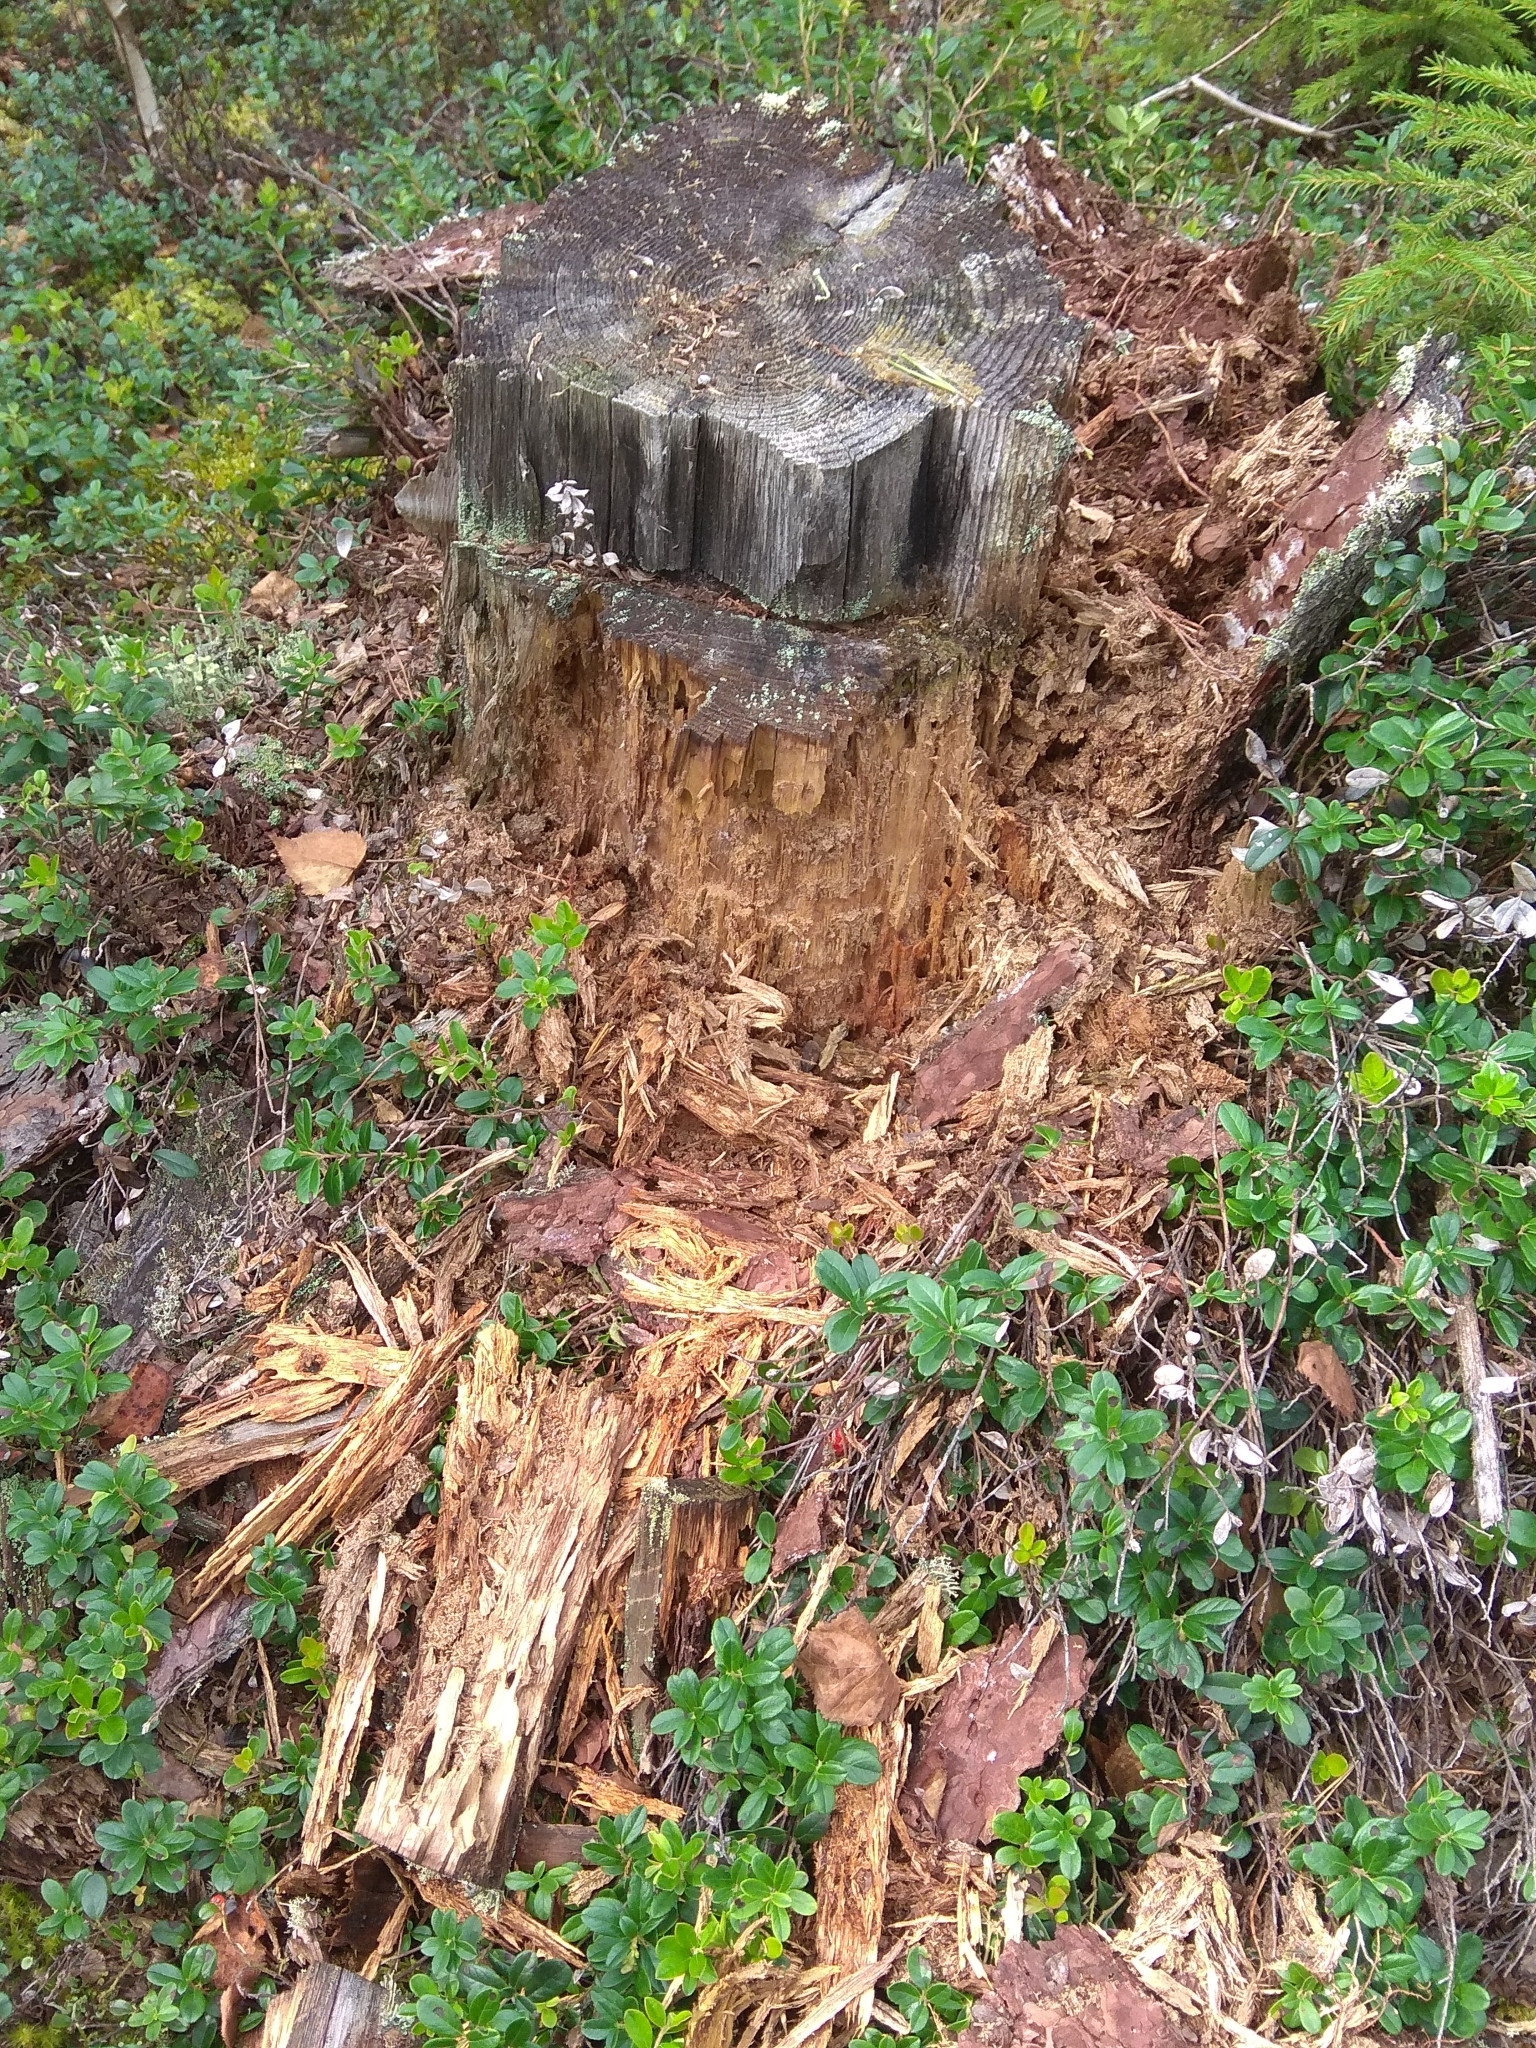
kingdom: Animalia
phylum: Chordata
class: Mammalia
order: Carnivora
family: Ursidae
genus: Ursus
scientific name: Ursus arctos
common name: Brown bear
